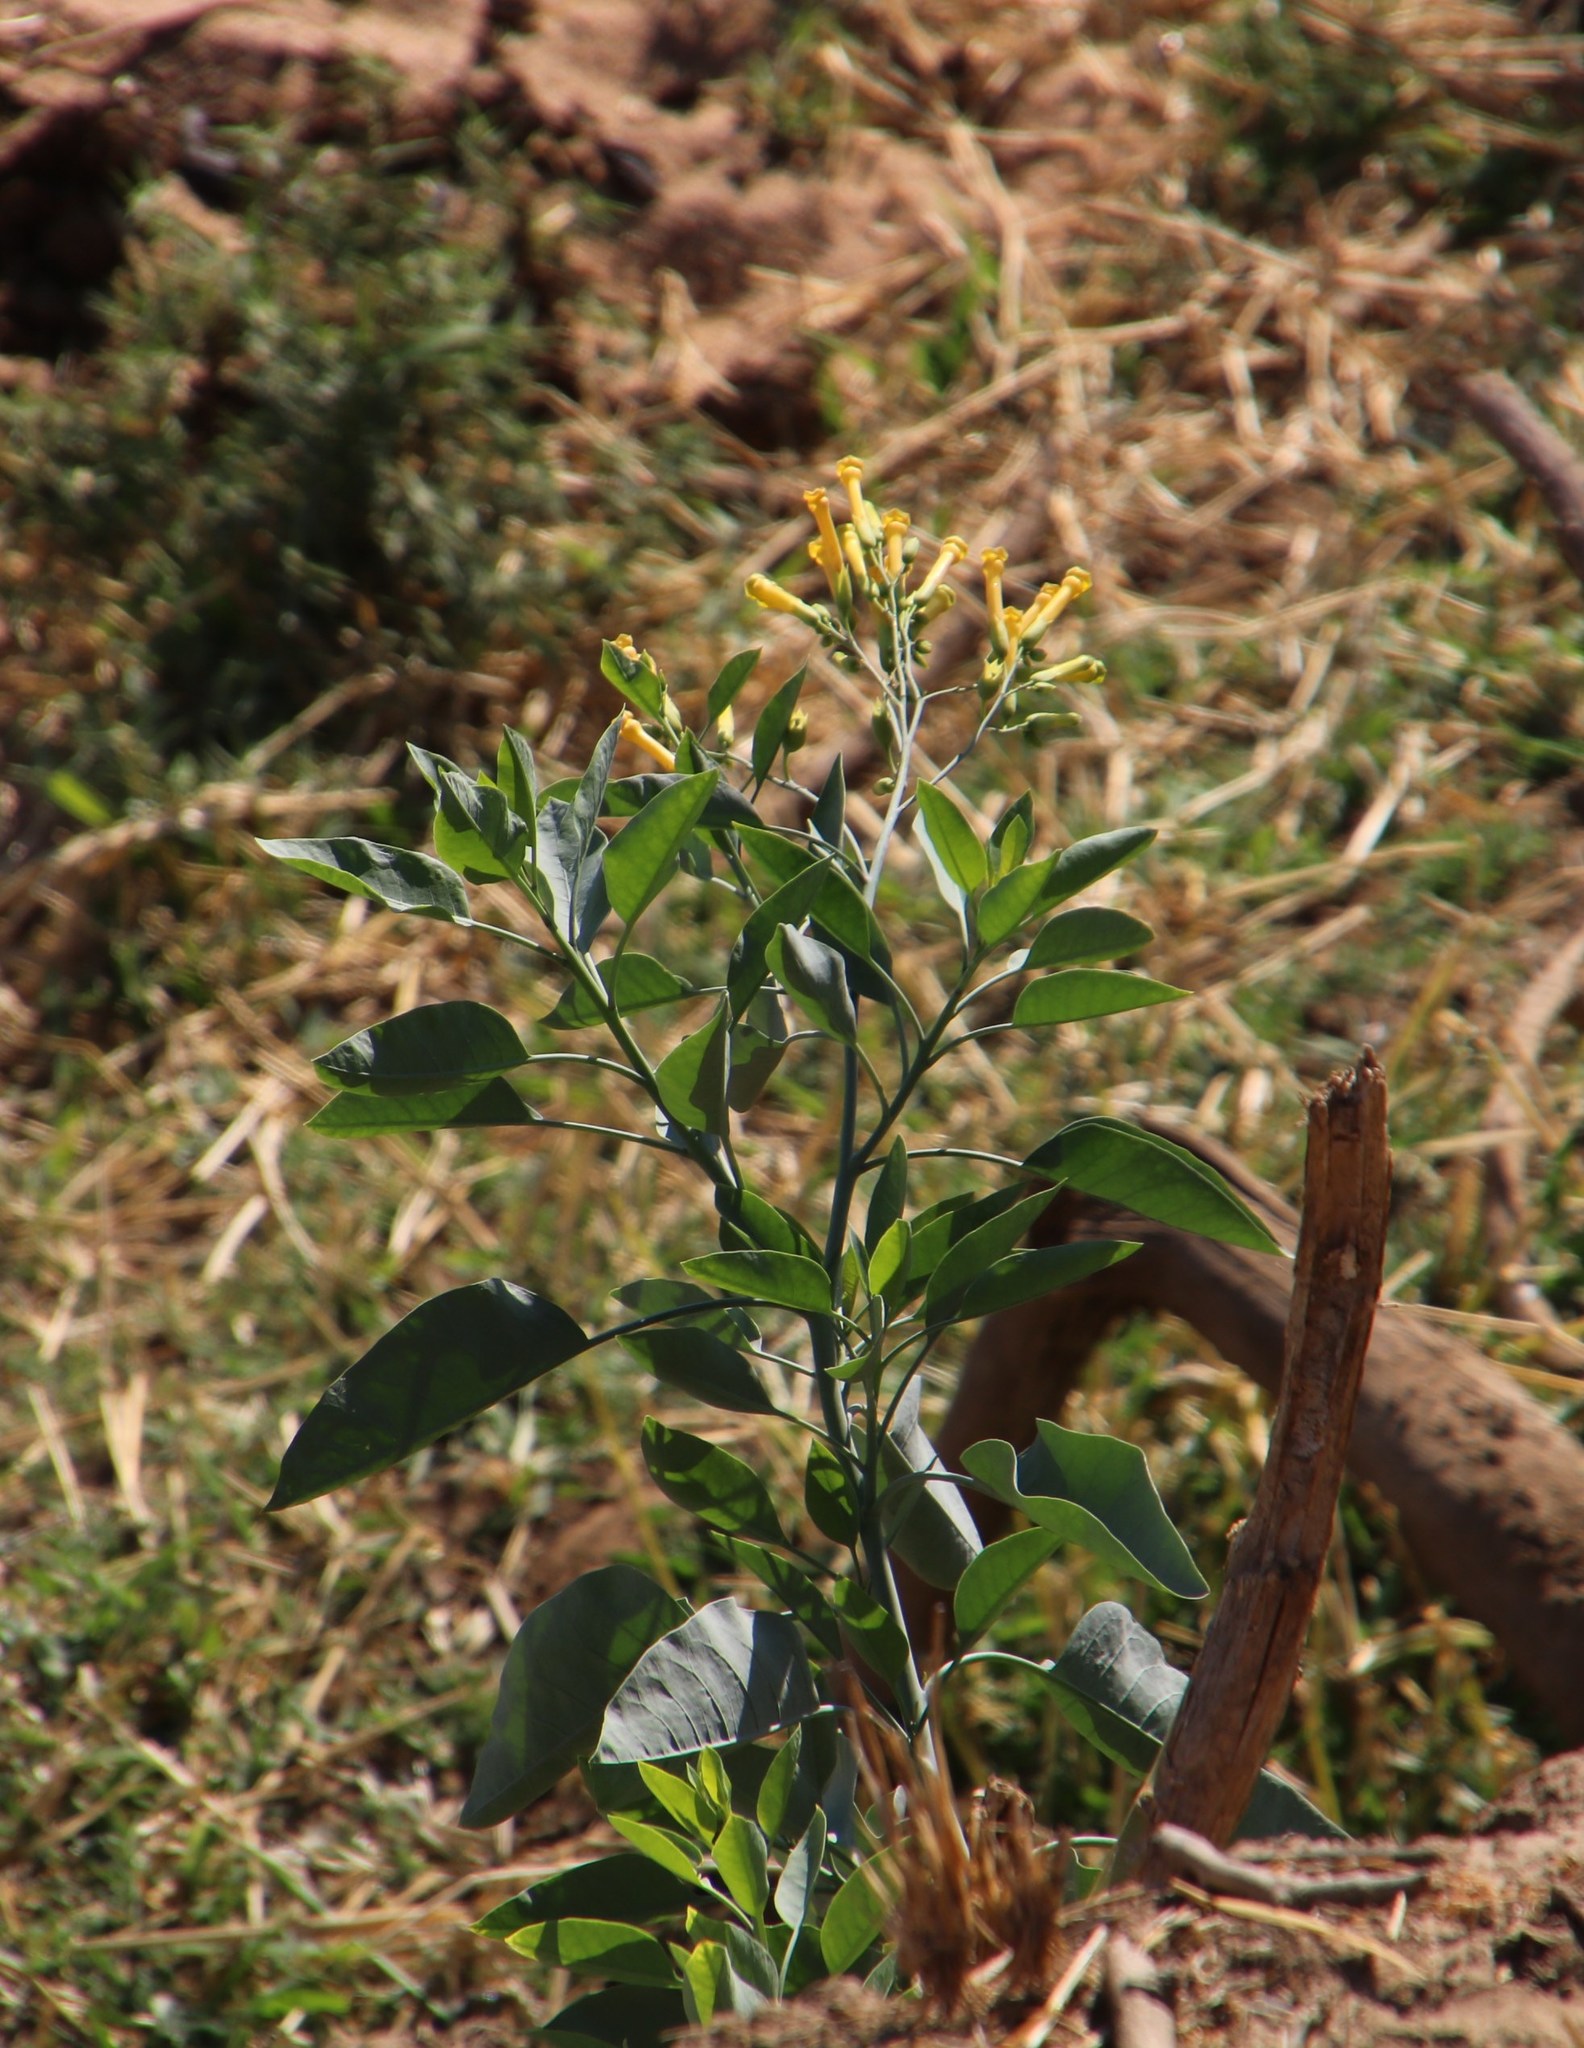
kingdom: Plantae
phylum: Tracheophyta
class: Magnoliopsida
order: Solanales
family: Solanaceae
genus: Nicotiana
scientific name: Nicotiana glauca
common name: Tree tobacco
